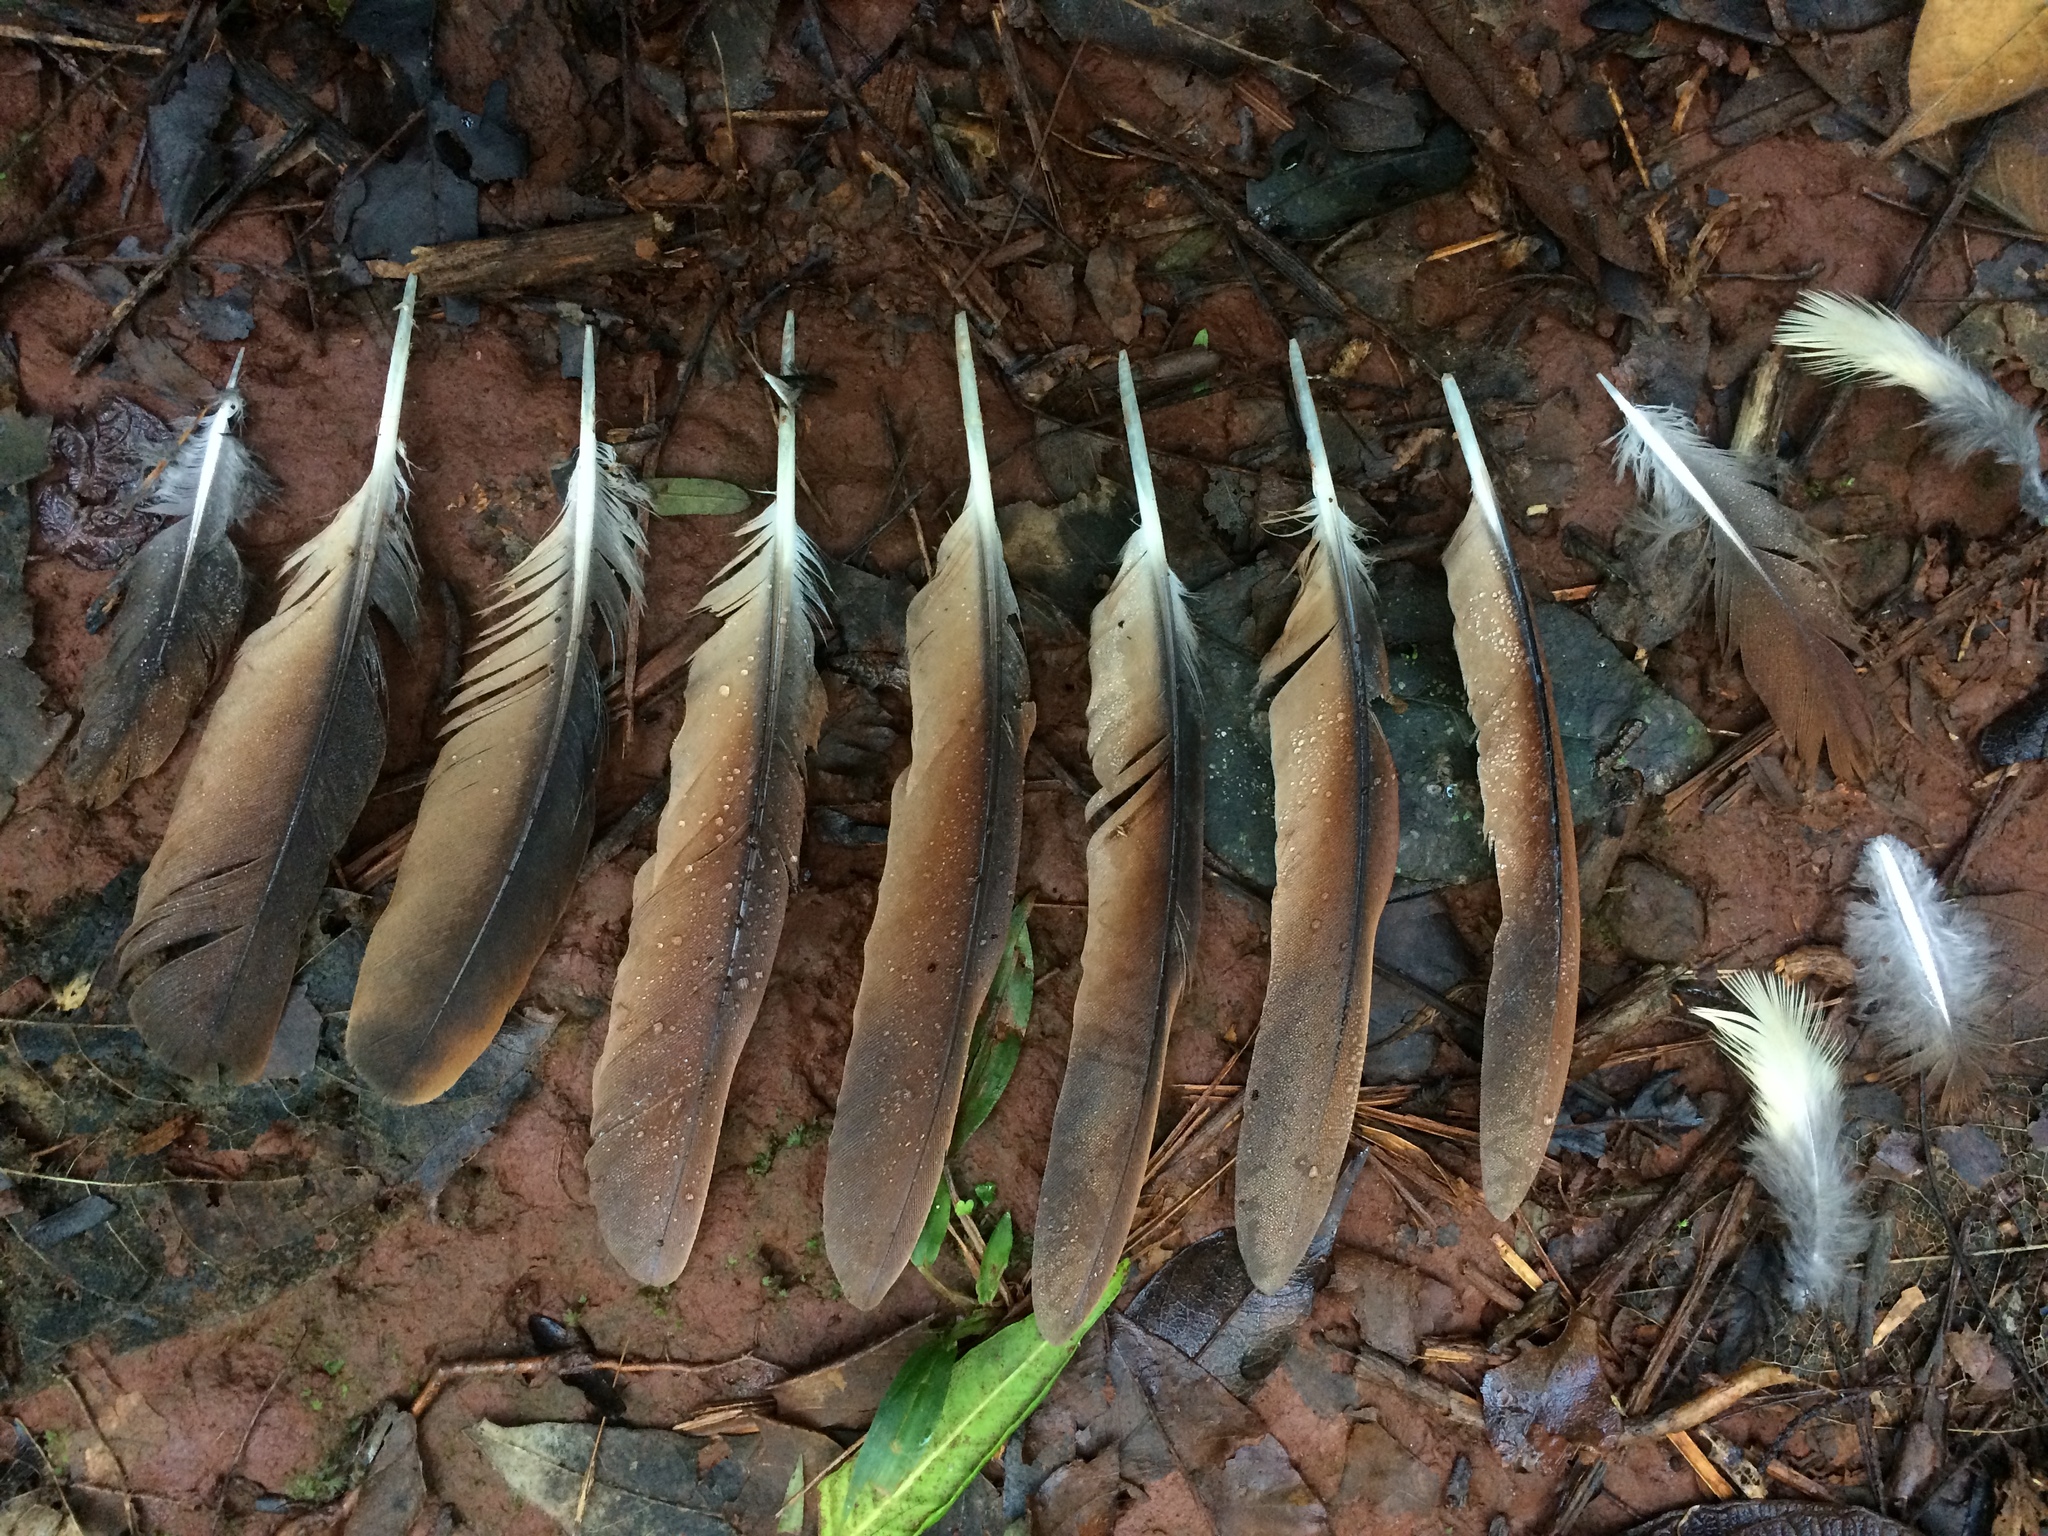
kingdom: Animalia
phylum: Chordata
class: Aves
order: Columbiformes
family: Columbidae
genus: Geotrygon
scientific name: Geotrygon montana
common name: Ruddy quail-dove
